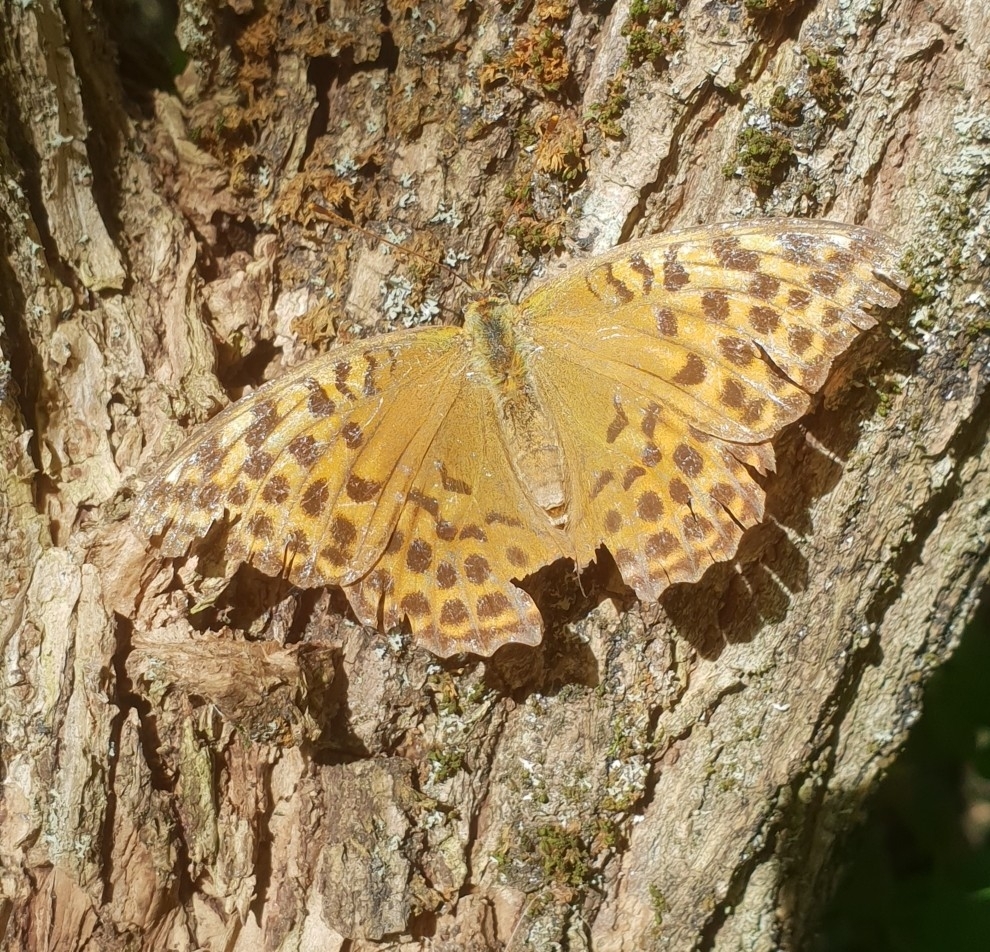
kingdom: Animalia
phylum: Arthropoda
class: Insecta
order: Lepidoptera
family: Nymphalidae
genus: Argynnis
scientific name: Argynnis paphia
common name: Silver-washed fritillary
